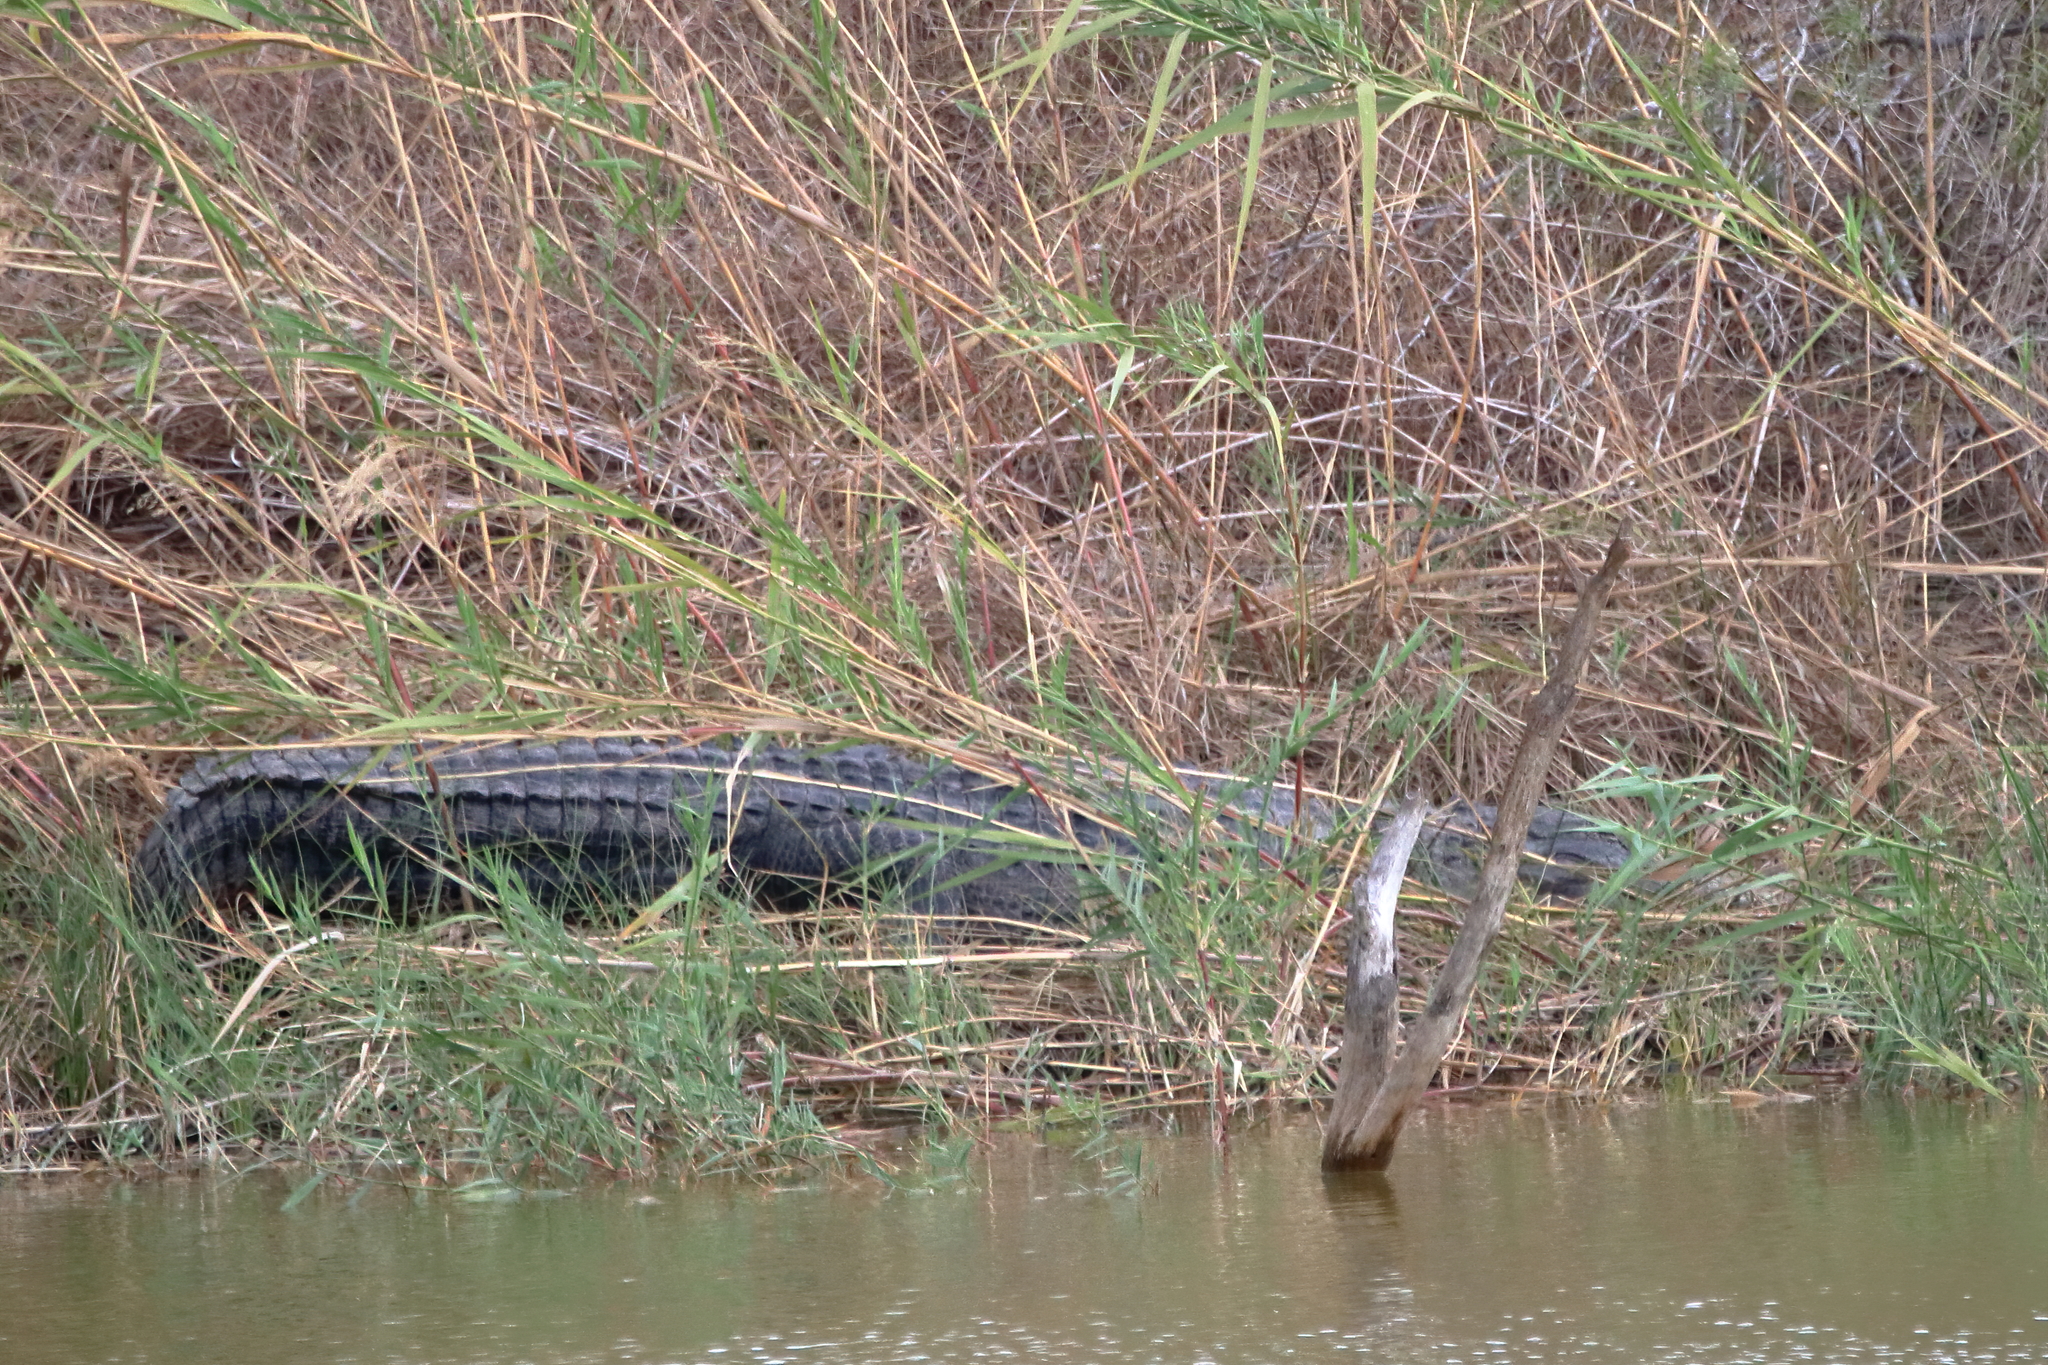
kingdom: Animalia
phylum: Chordata
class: Crocodylia
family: Alligatoridae
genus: Alligator
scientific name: Alligator mississippiensis
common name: American alligator
